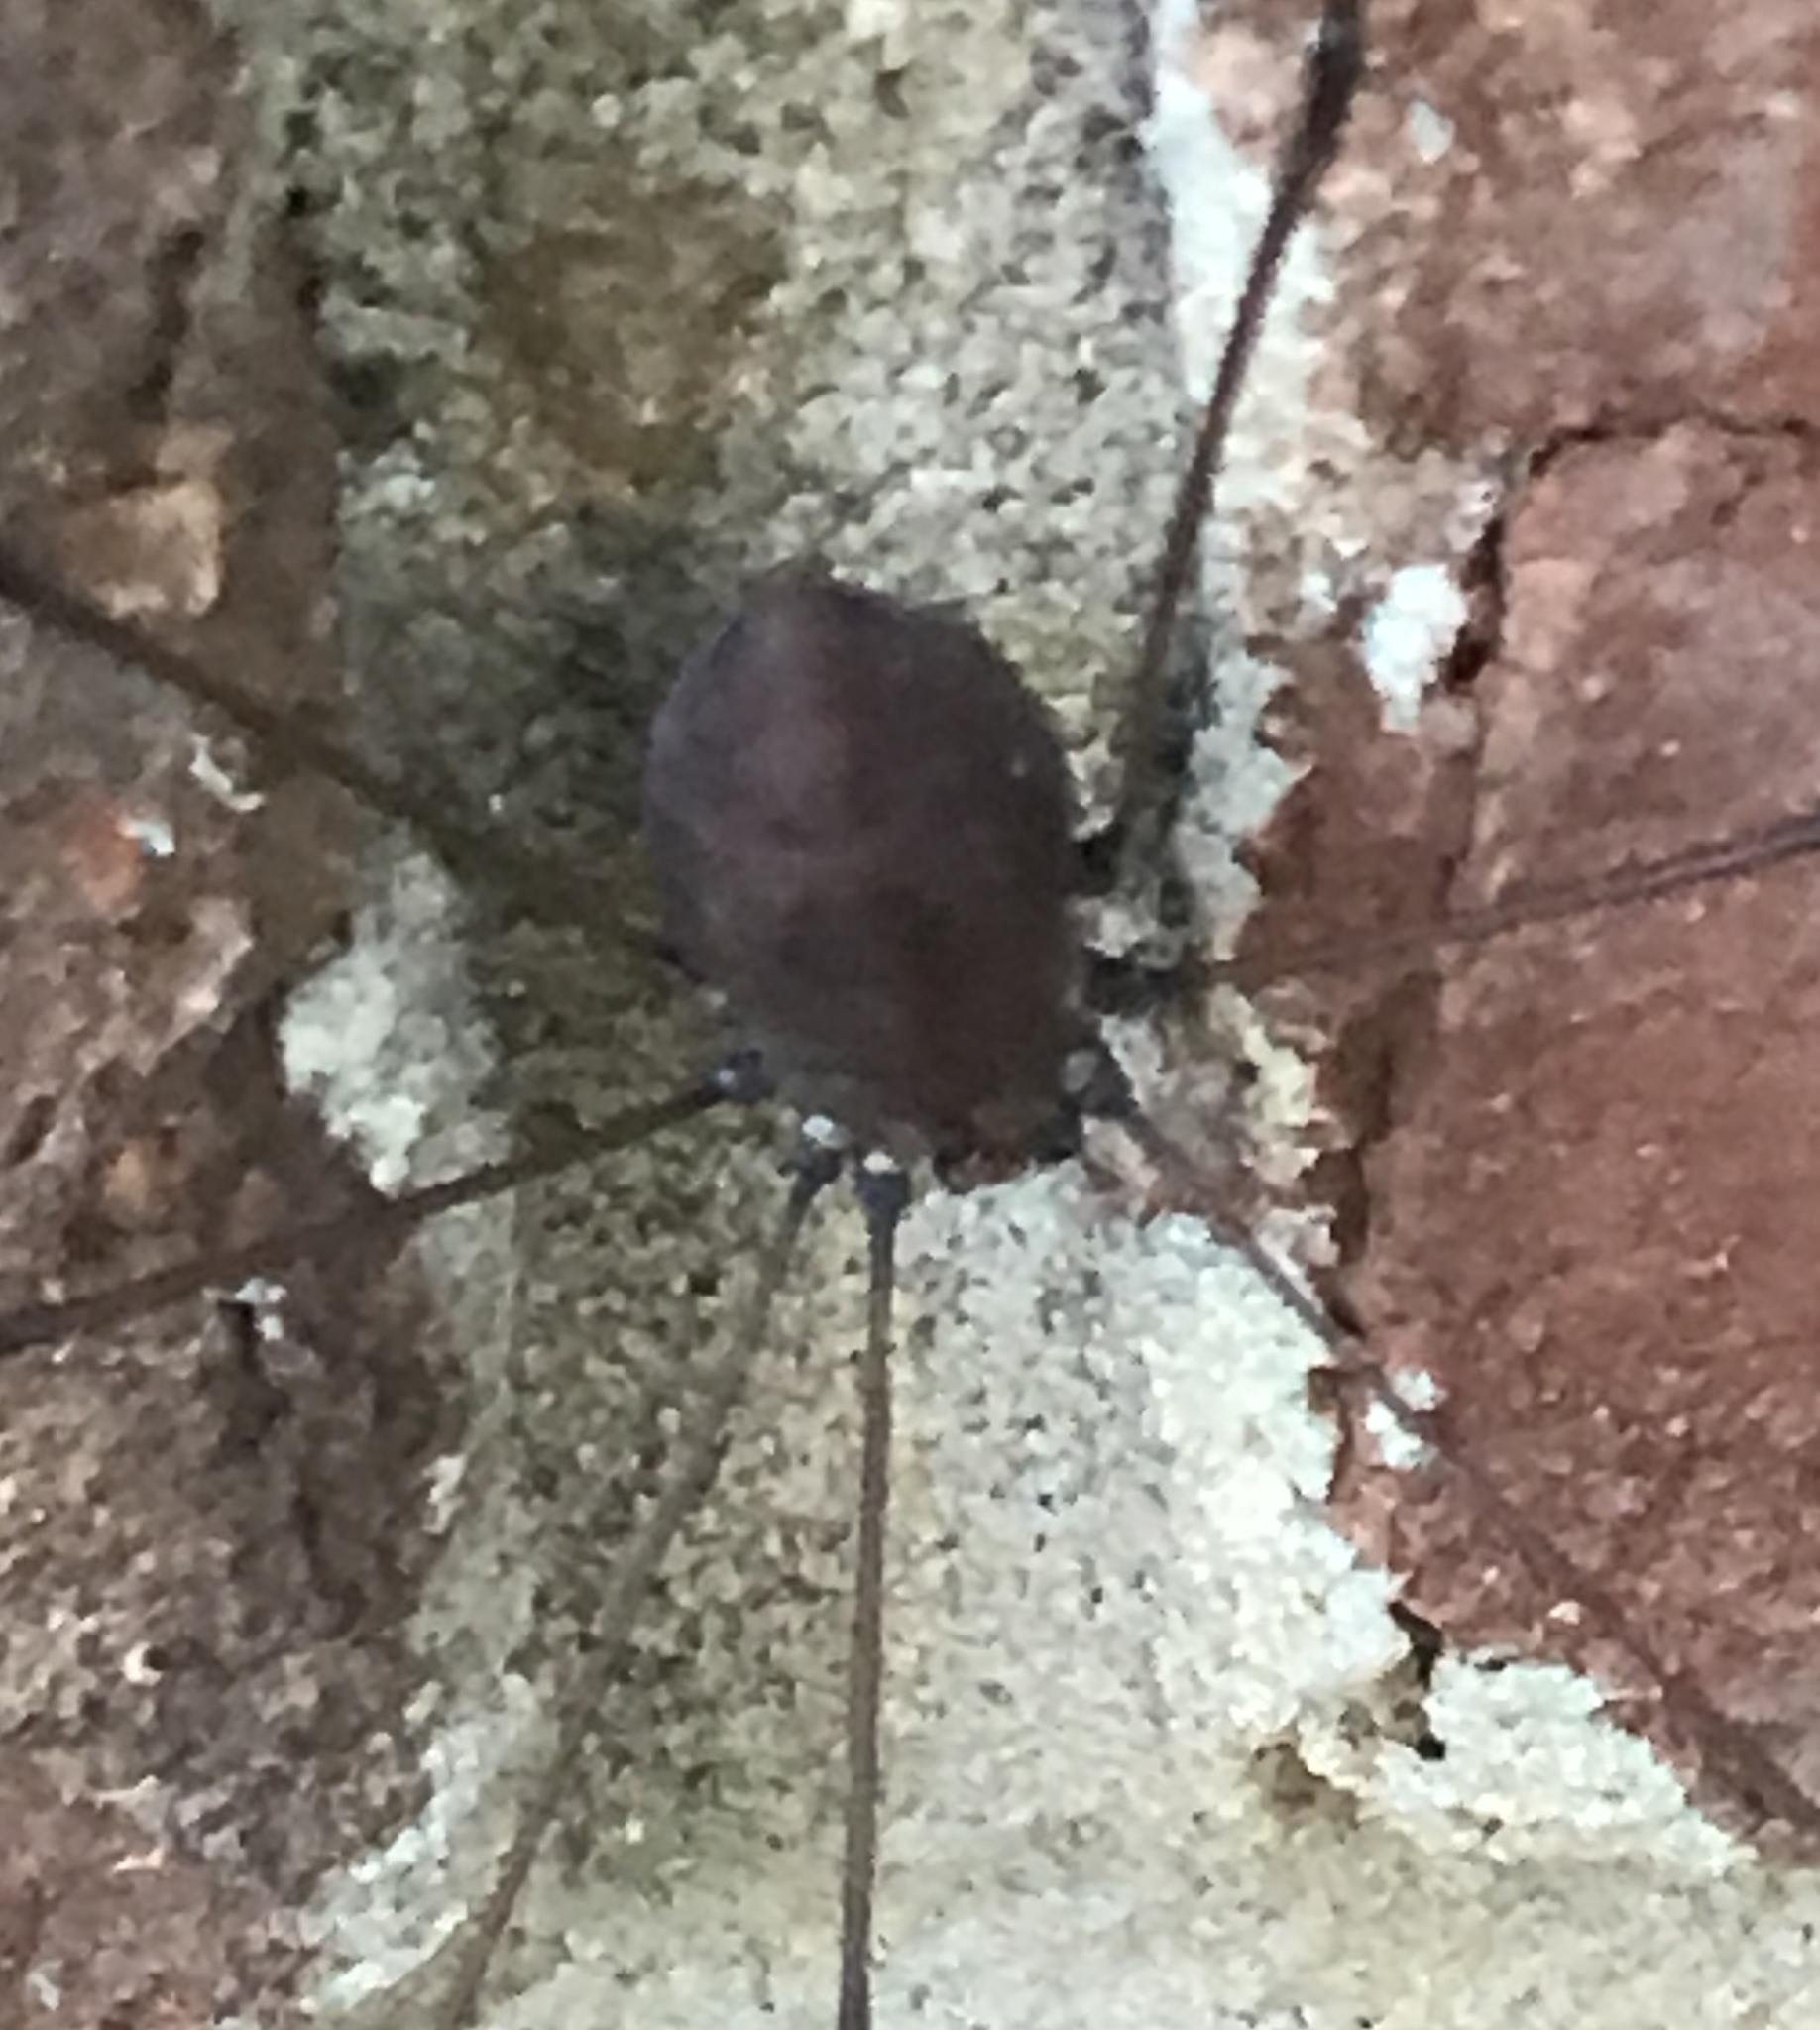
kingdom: Animalia
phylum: Arthropoda
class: Arachnida
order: Opiliones
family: Sclerosomatidae
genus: Leiobunum
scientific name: Leiobunum vittatum
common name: Eastern harvestman
